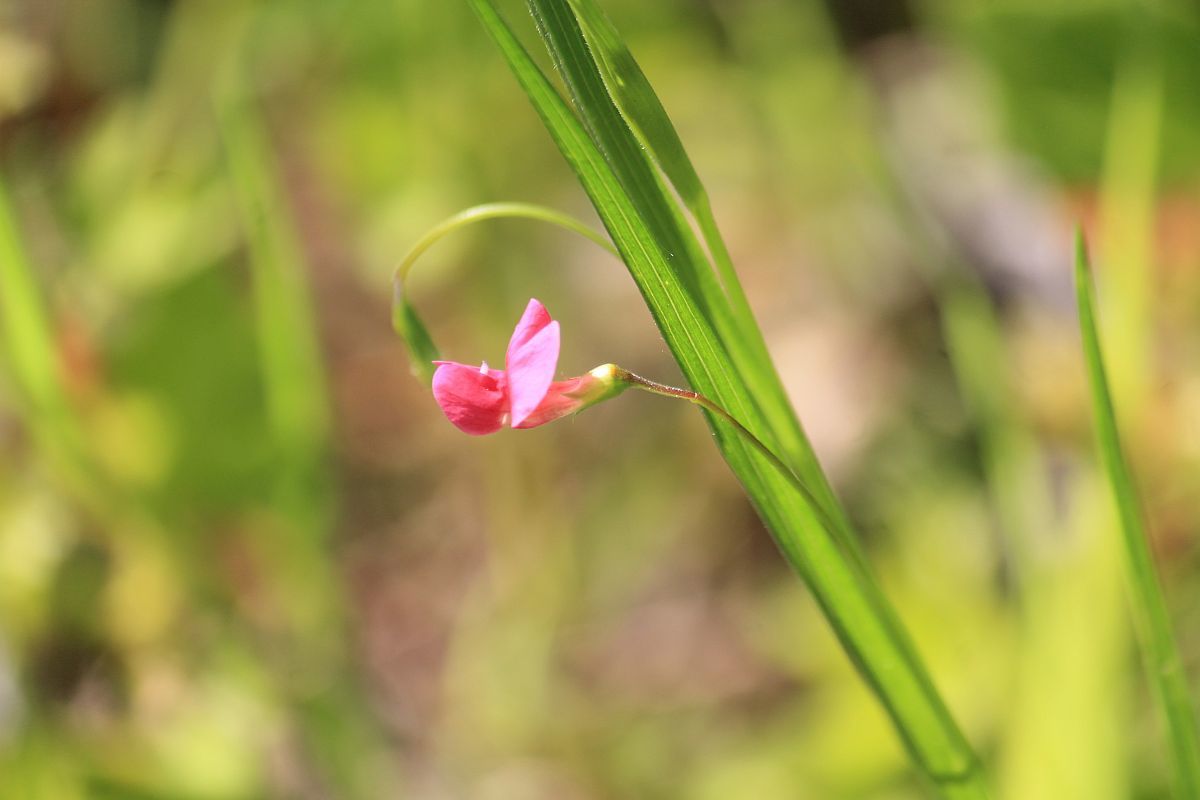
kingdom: Plantae
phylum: Tracheophyta
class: Magnoliopsida
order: Fabales
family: Fabaceae
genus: Lathyrus
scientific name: Lathyrus nissolia
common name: Grass vetchling
